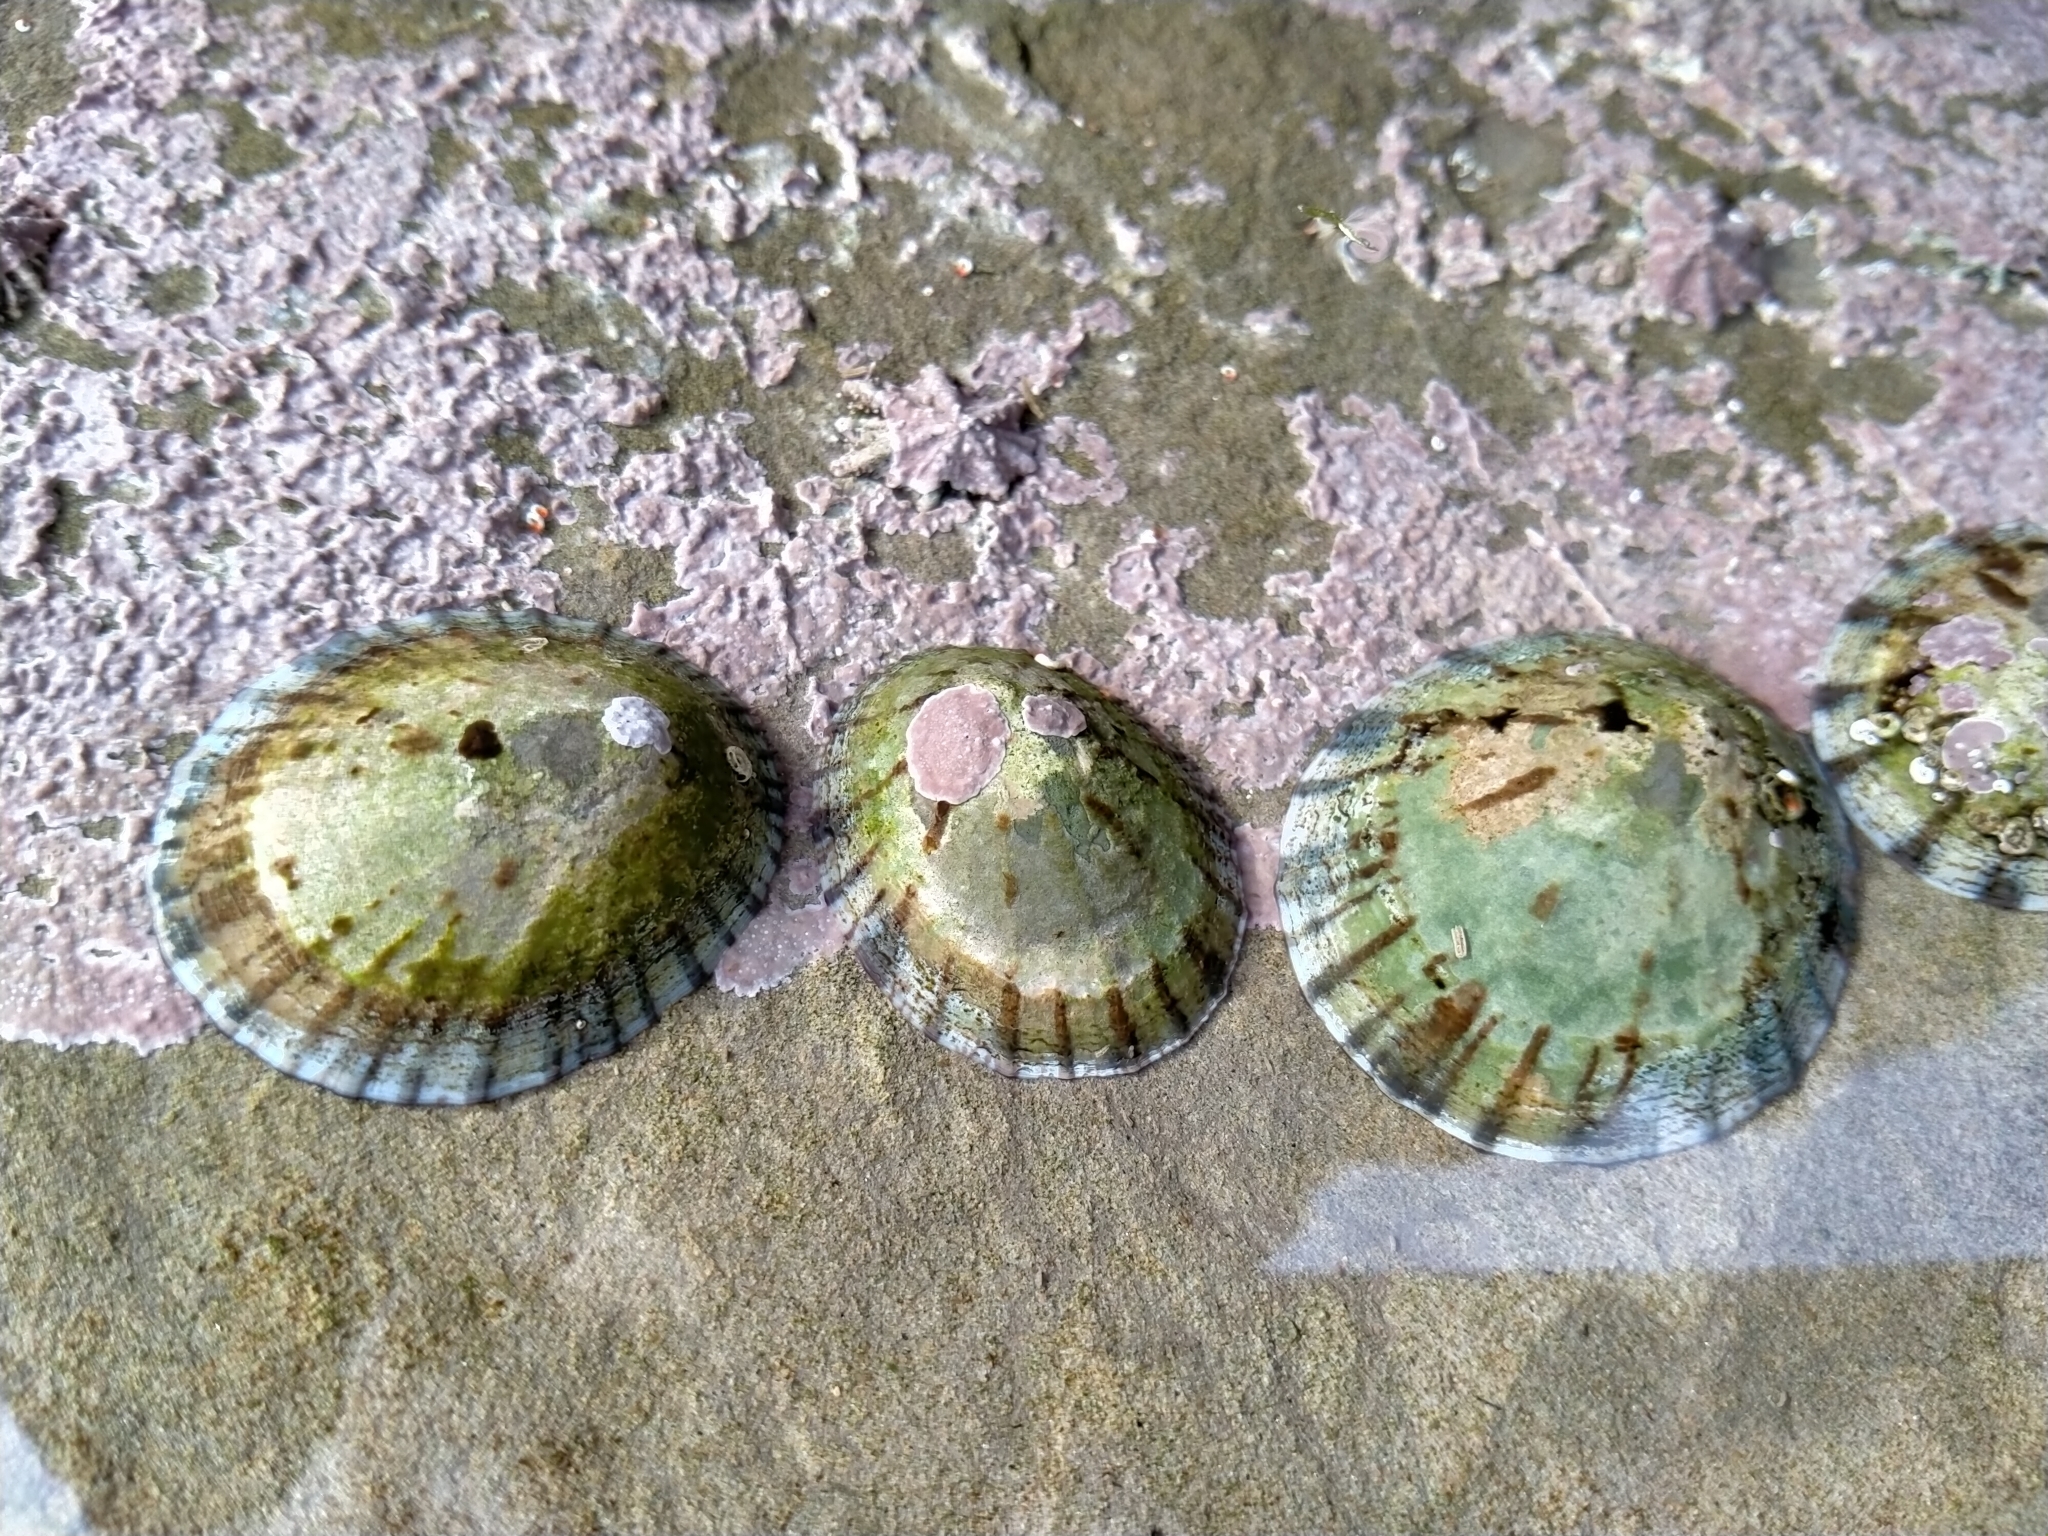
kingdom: Animalia
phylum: Mollusca
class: Gastropoda
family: Nacellidae
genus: Cellana
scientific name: Cellana radians
